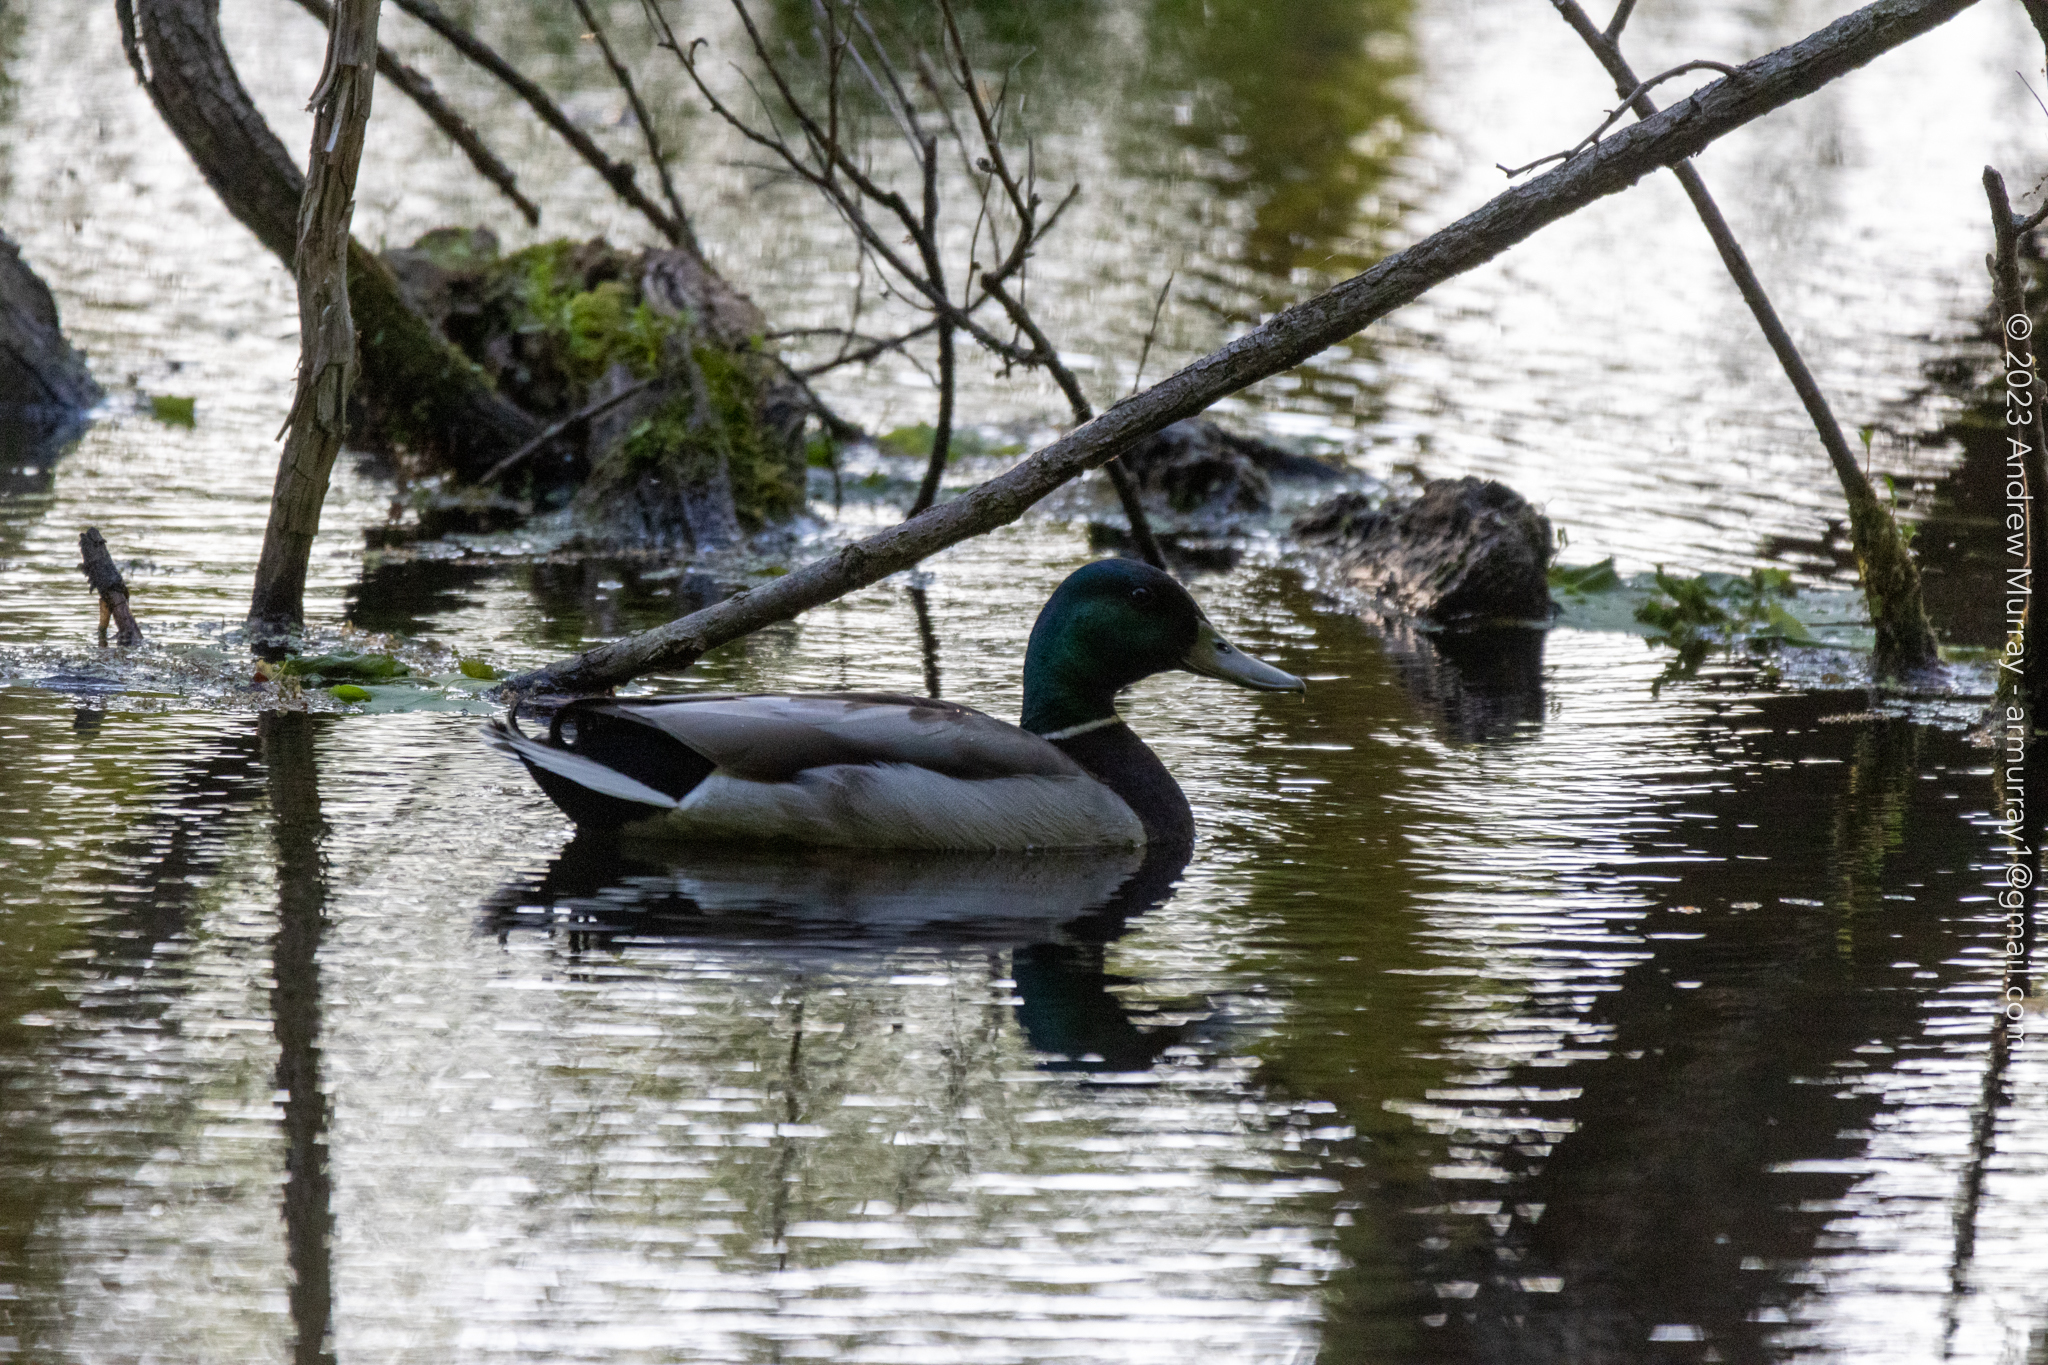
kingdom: Animalia
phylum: Chordata
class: Aves
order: Anseriformes
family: Anatidae
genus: Anas
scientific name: Anas platyrhynchos
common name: Mallard
